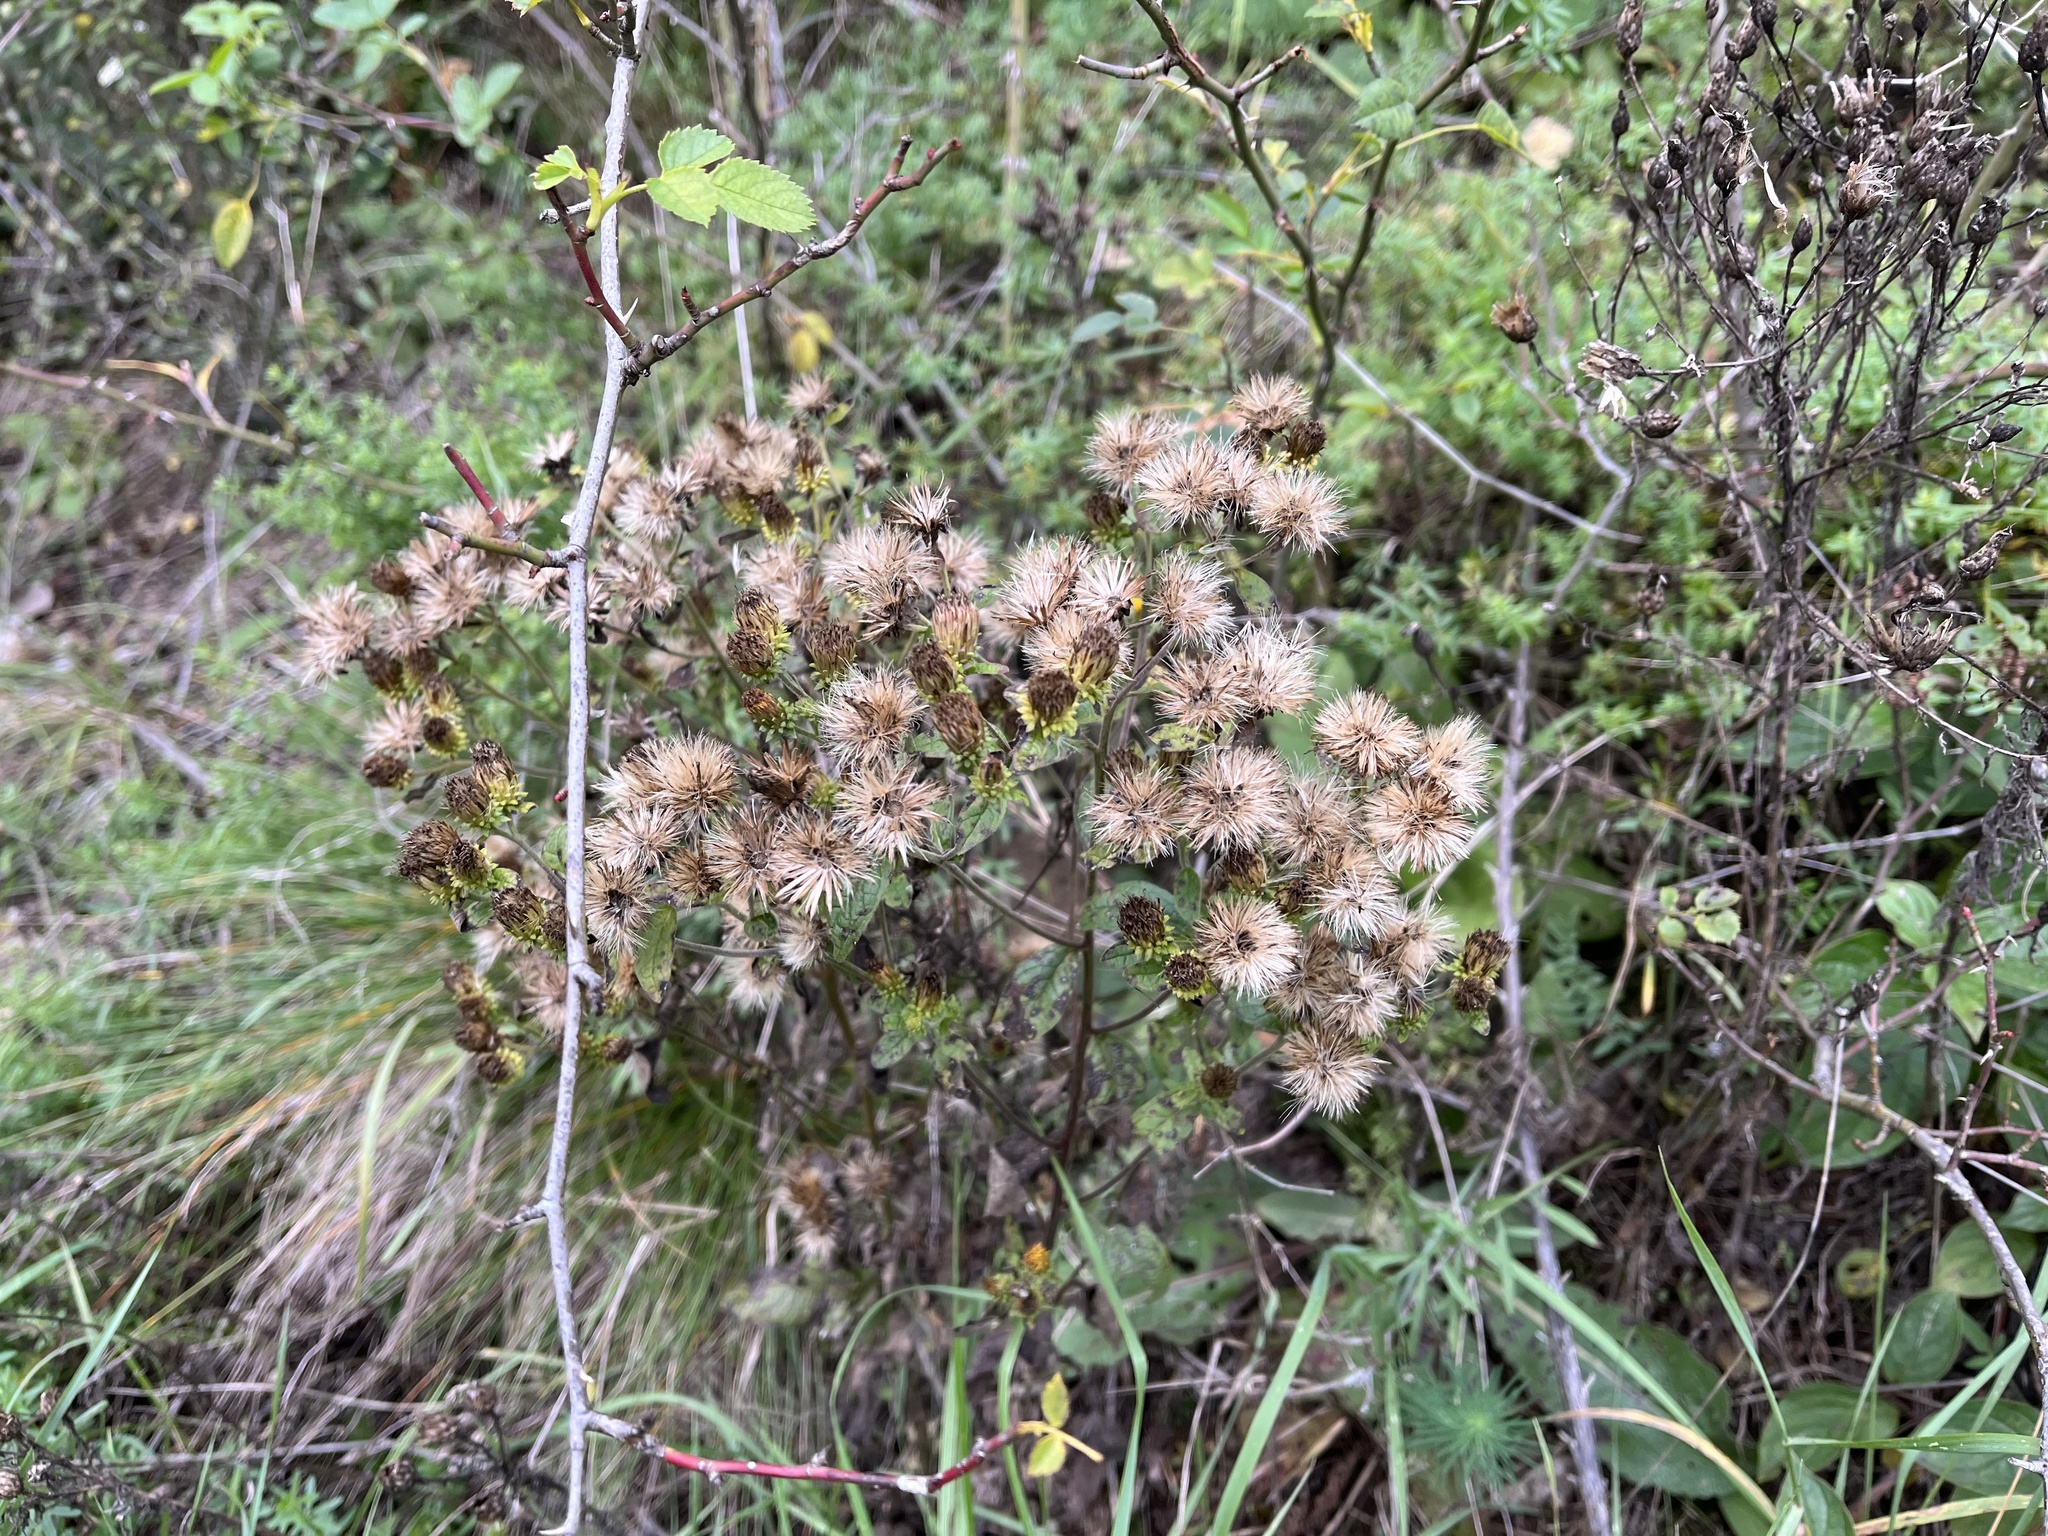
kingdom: Plantae
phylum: Tracheophyta
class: Magnoliopsida
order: Asterales
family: Asteraceae
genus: Pentanema
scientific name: Pentanema squarrosum
